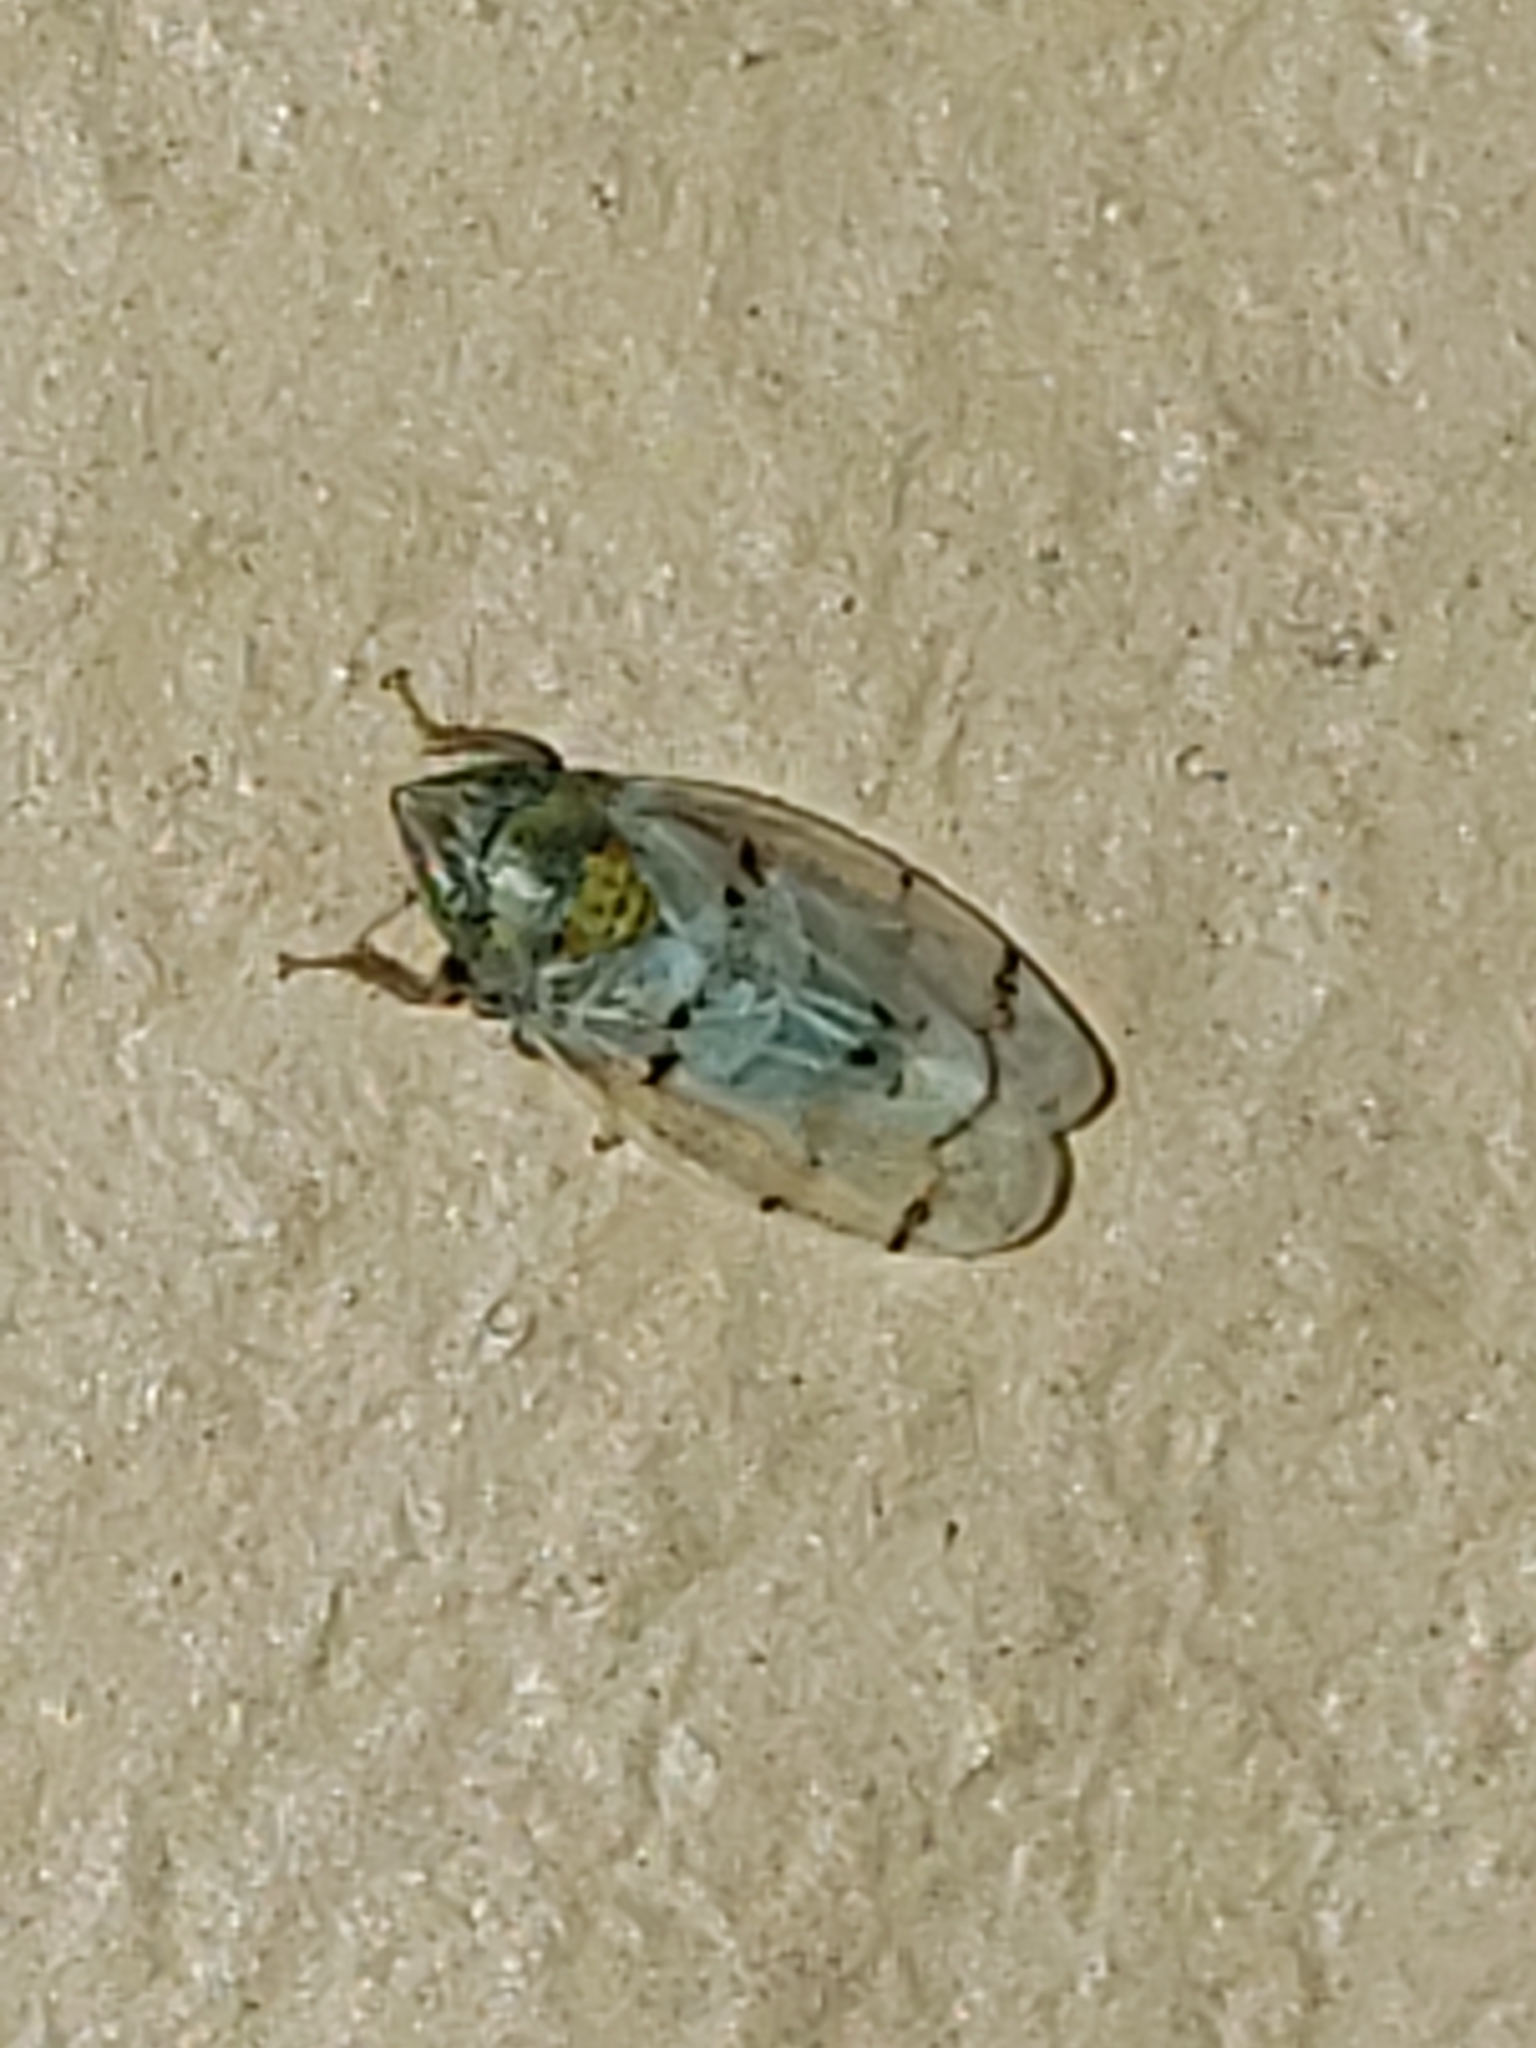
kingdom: Animalia
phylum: Arthropoda
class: Insecta
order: Hemiptera
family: Cicadellidae
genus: Japananus
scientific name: Japananus hyalinus
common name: The japanese maple leafhopper
